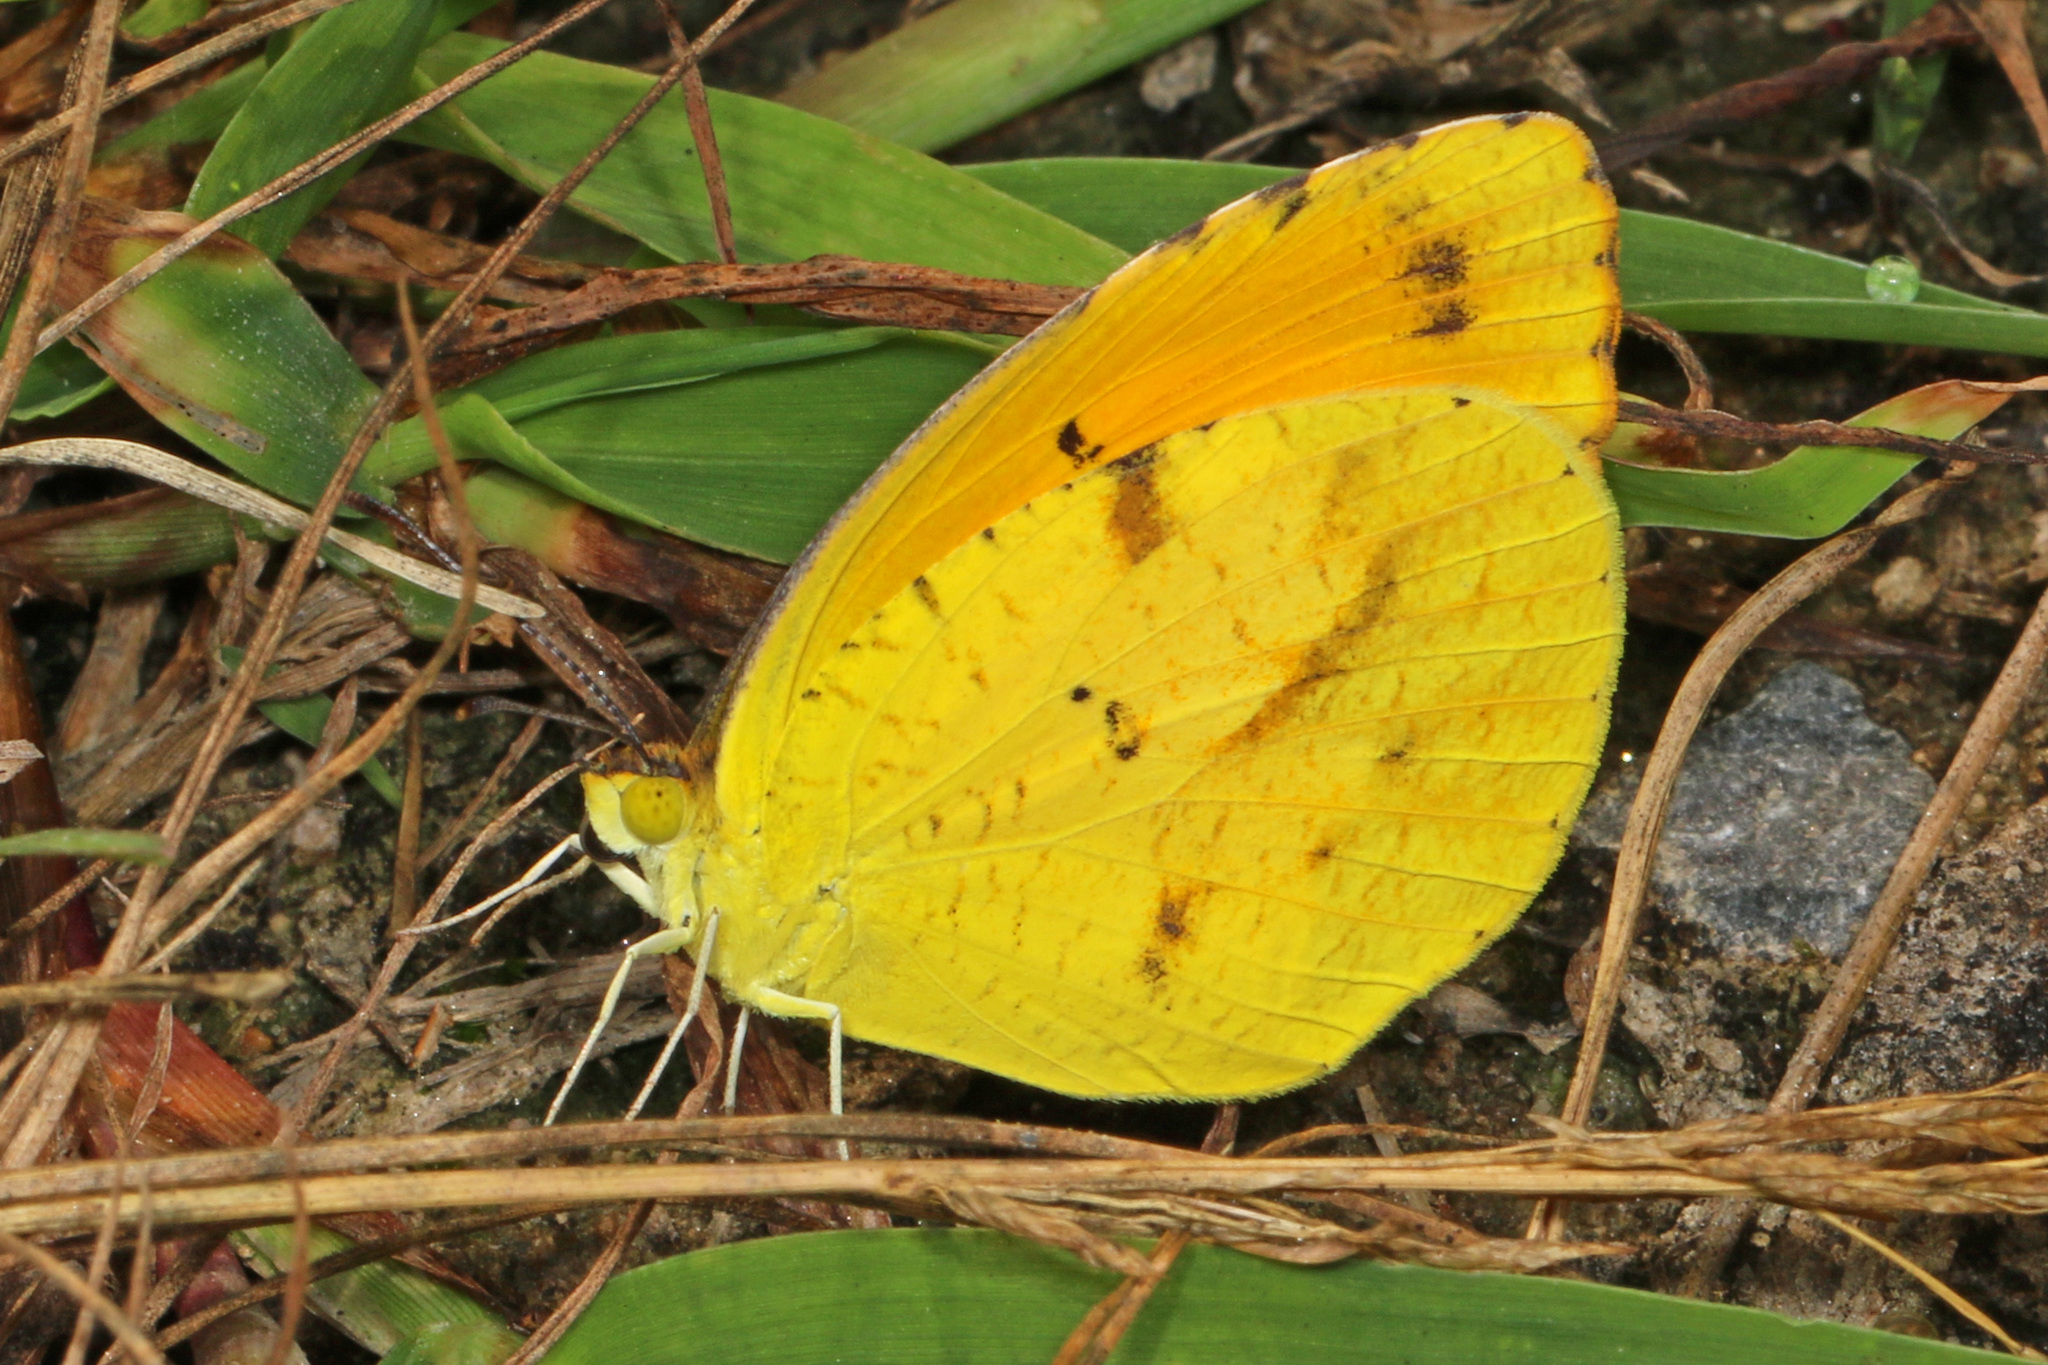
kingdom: Animalia
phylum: Arthropoda
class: Insecta
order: Lepidoptera
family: Pieridae
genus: Abaeis
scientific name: Abaeis nicippe
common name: Sleepy orange
